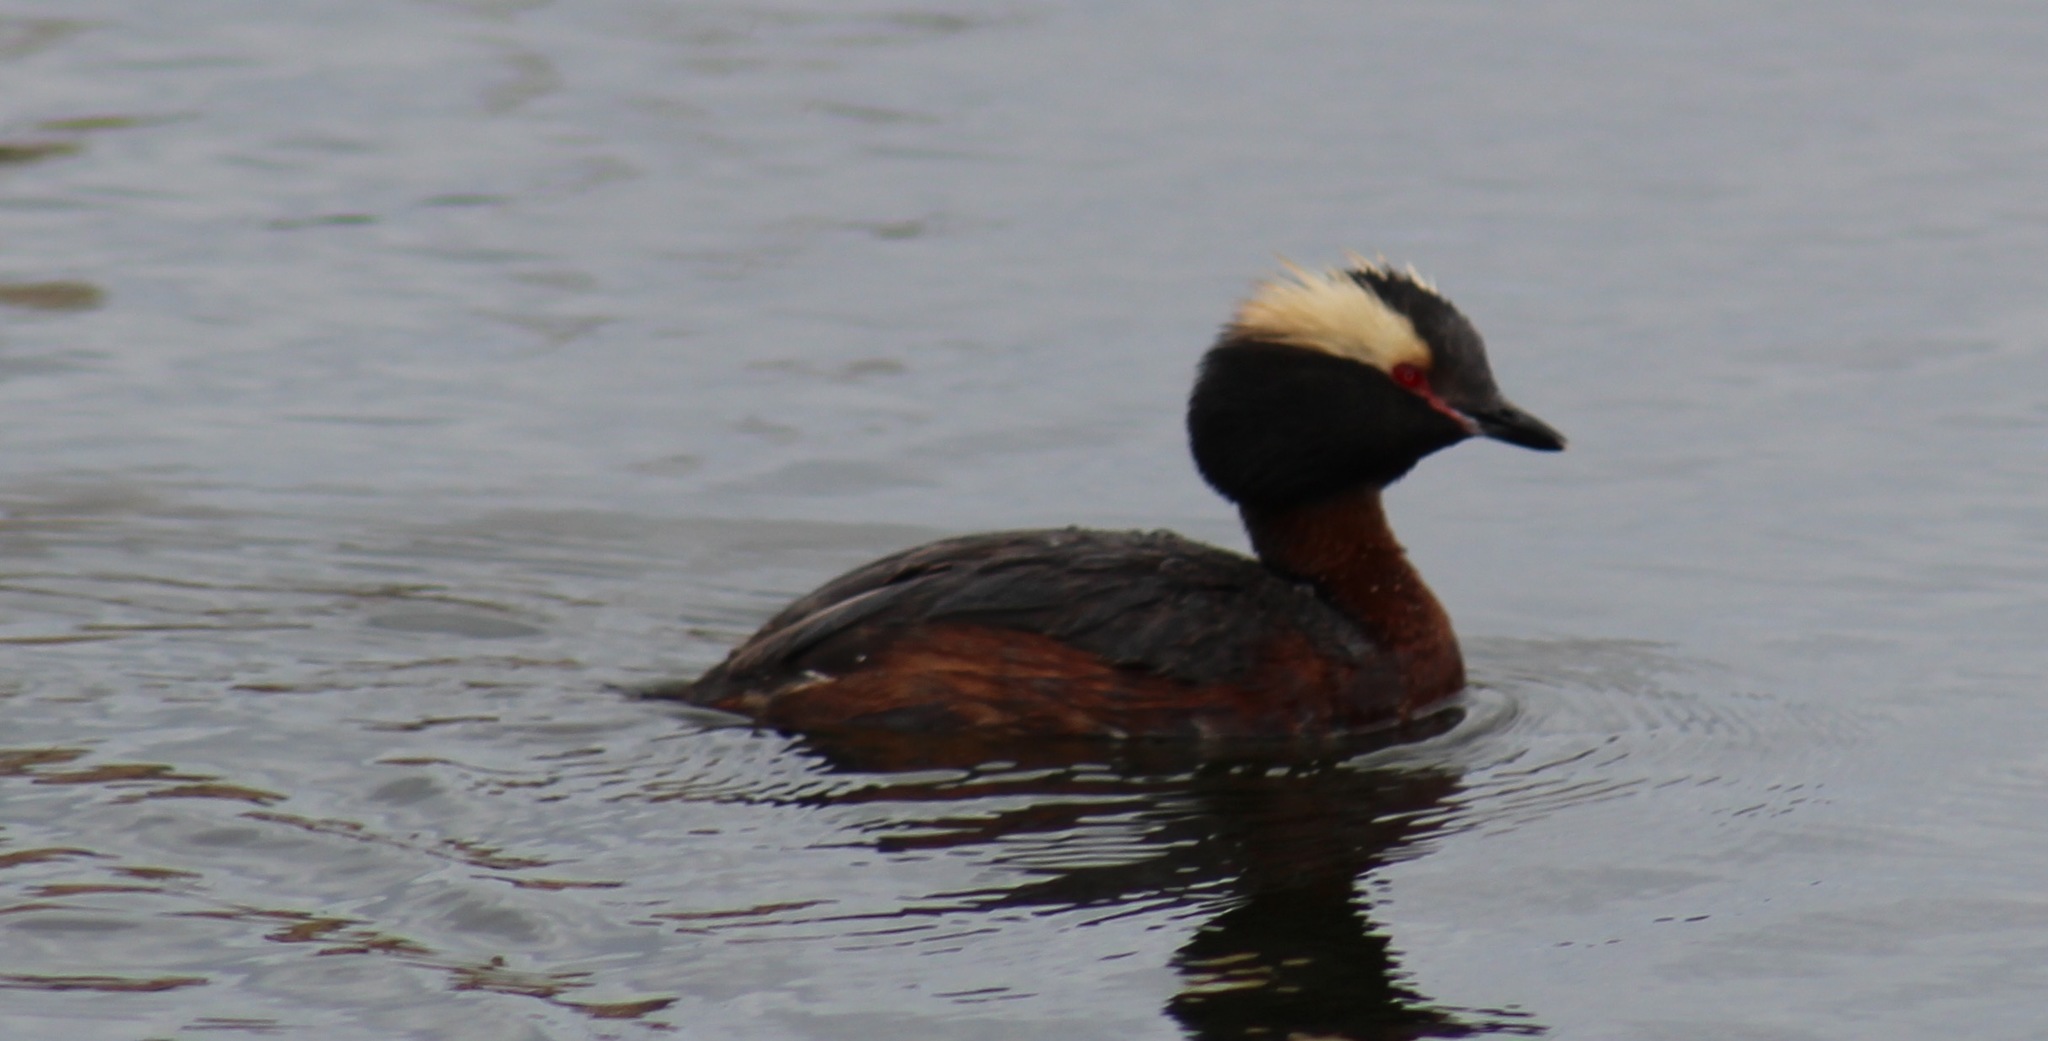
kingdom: Animalia
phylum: Chordata
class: Aves
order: Podicipediformes
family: Podicipedidae
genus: Podiceps
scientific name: Podiceps auritus
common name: Horned grebe
